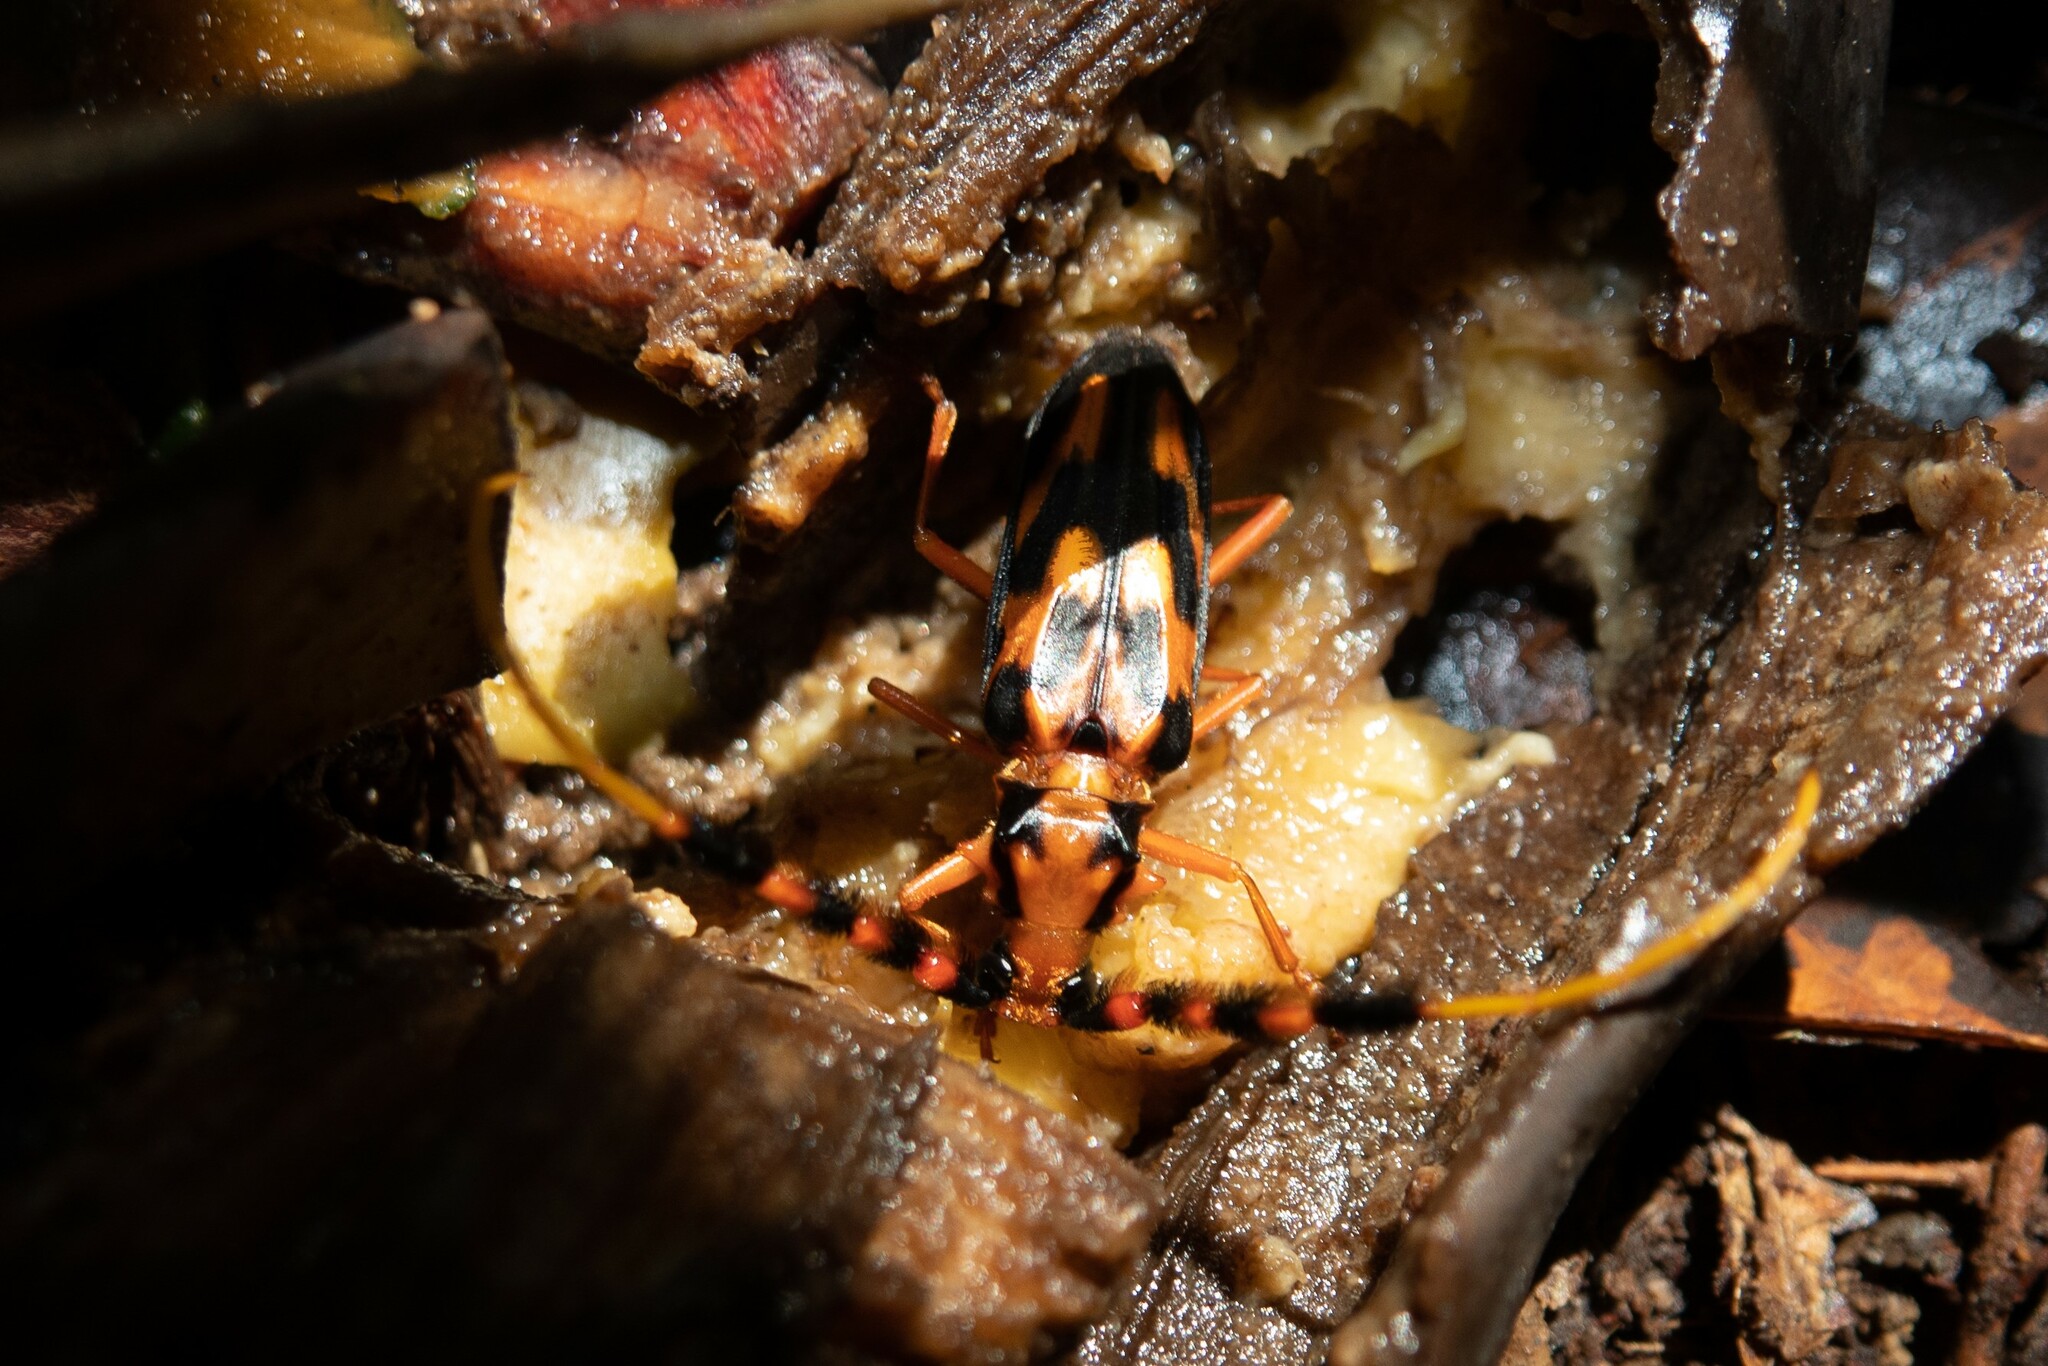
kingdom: Animalia
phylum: Arthropoda
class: Insecta
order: Coleoptera
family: Cerambycidae
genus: Batus
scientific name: Batus barbicornis
